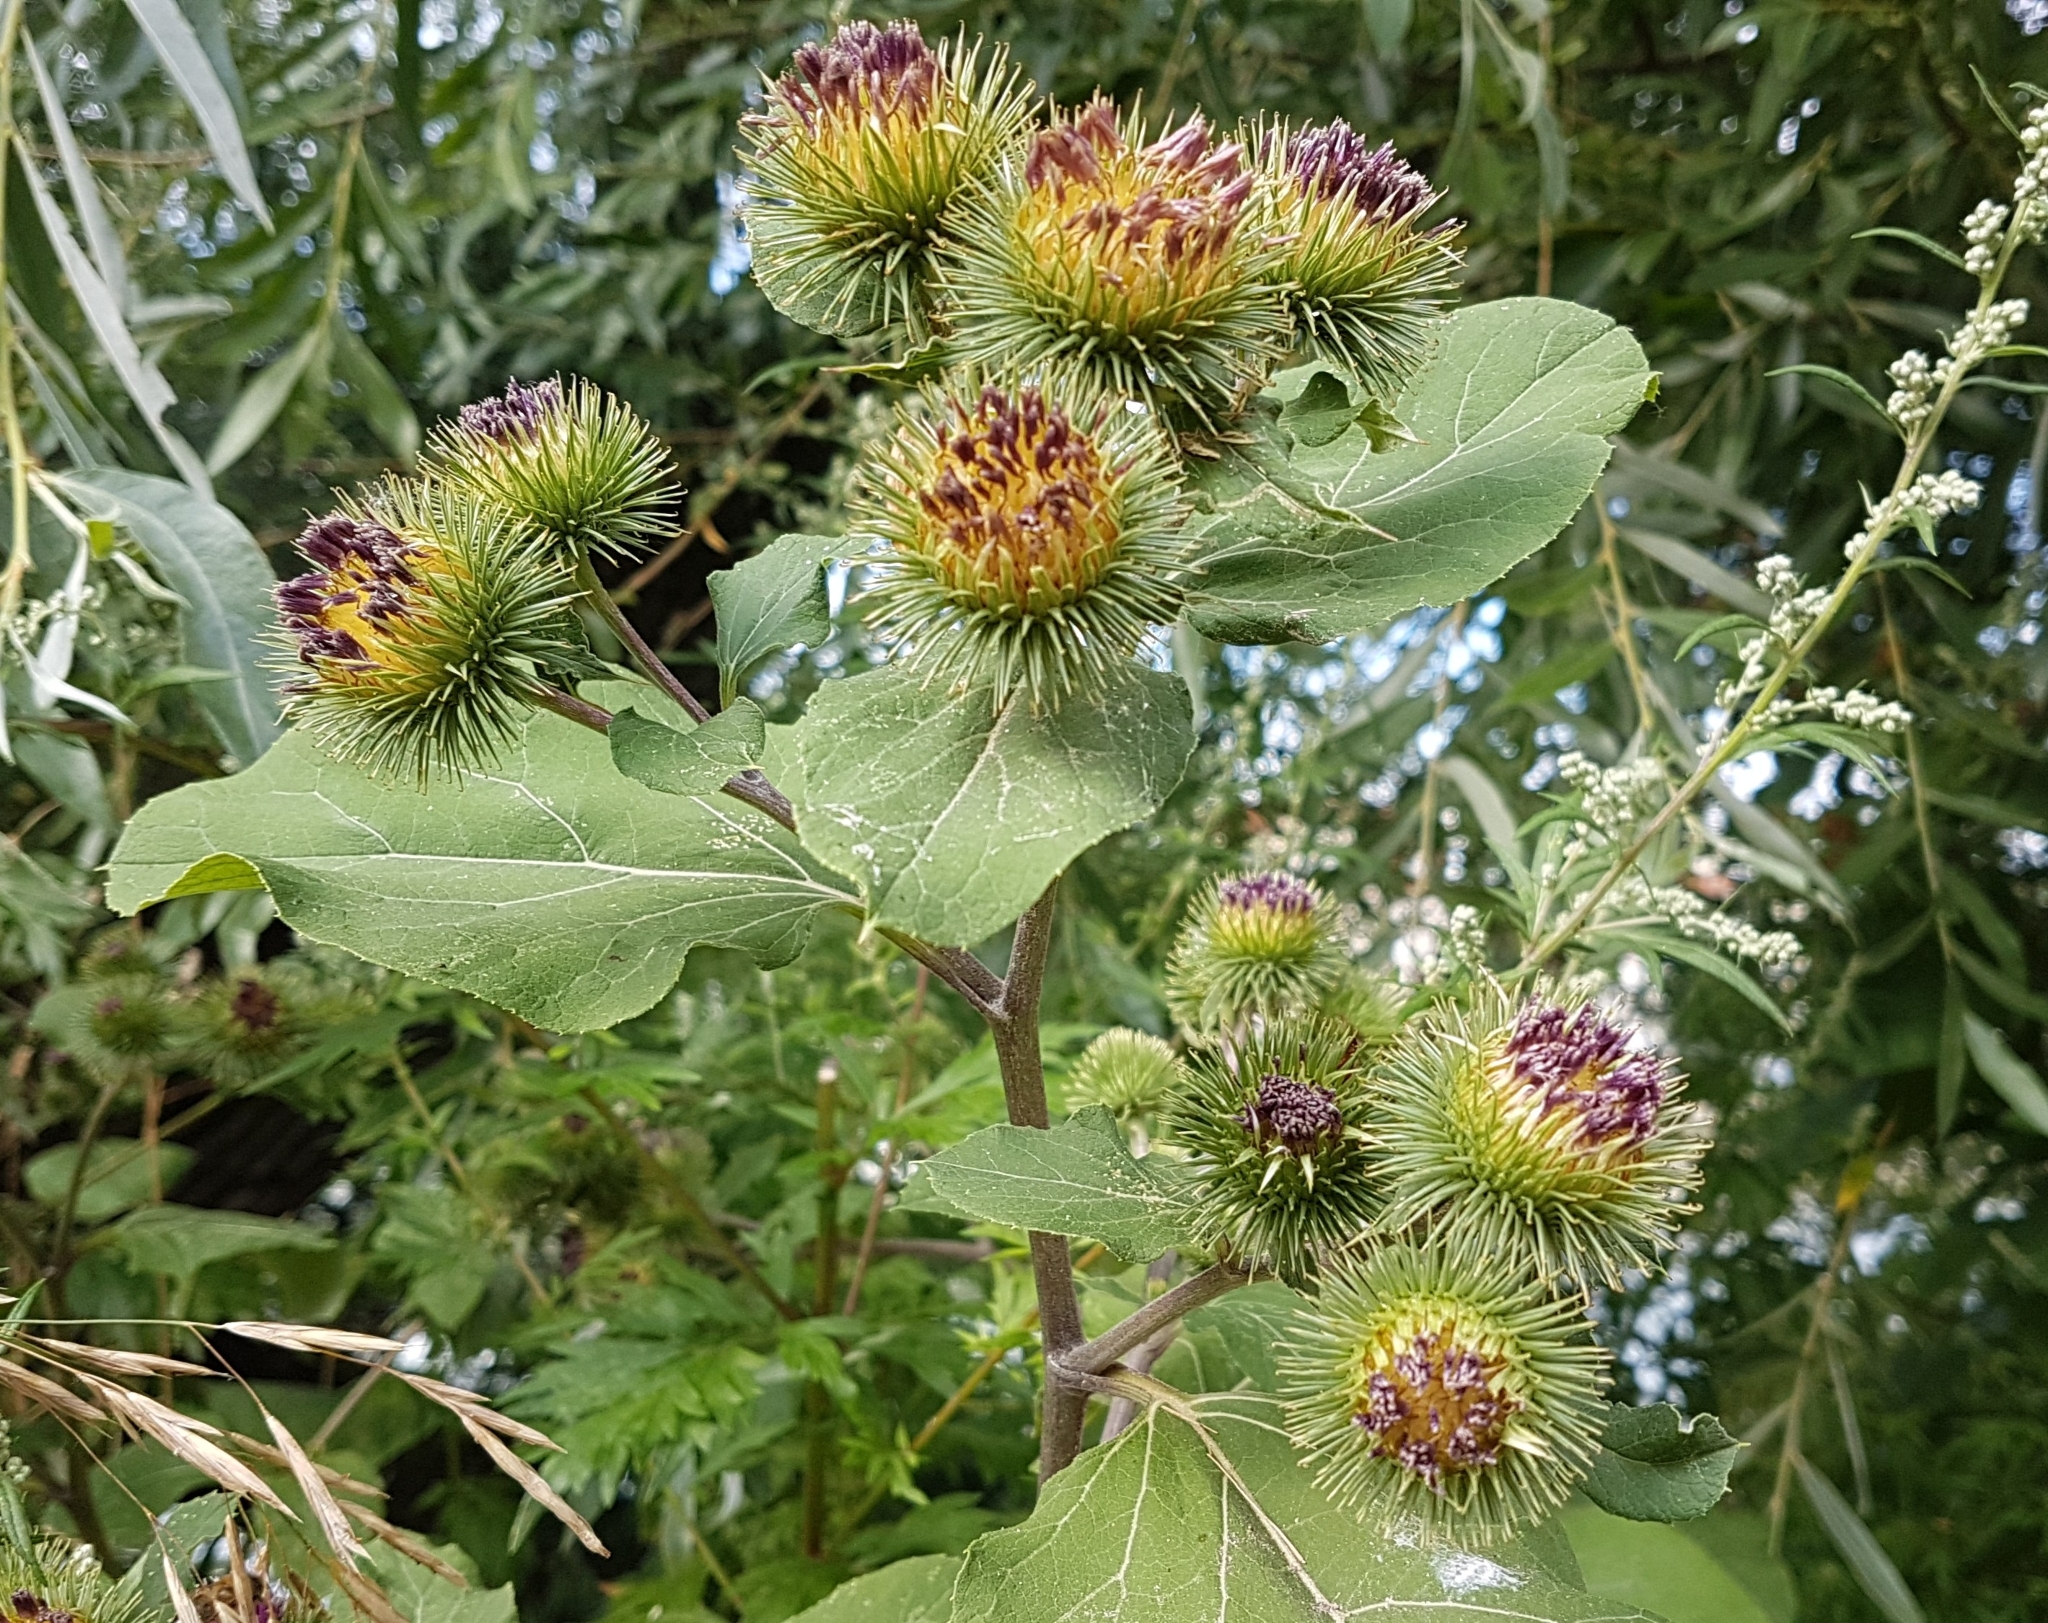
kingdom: Plantae
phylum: Tracheophyta
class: Magnoliopsida
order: Asterales
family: Asteraceae
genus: Arctium
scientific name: Arctium lappa
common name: Greater burdock
